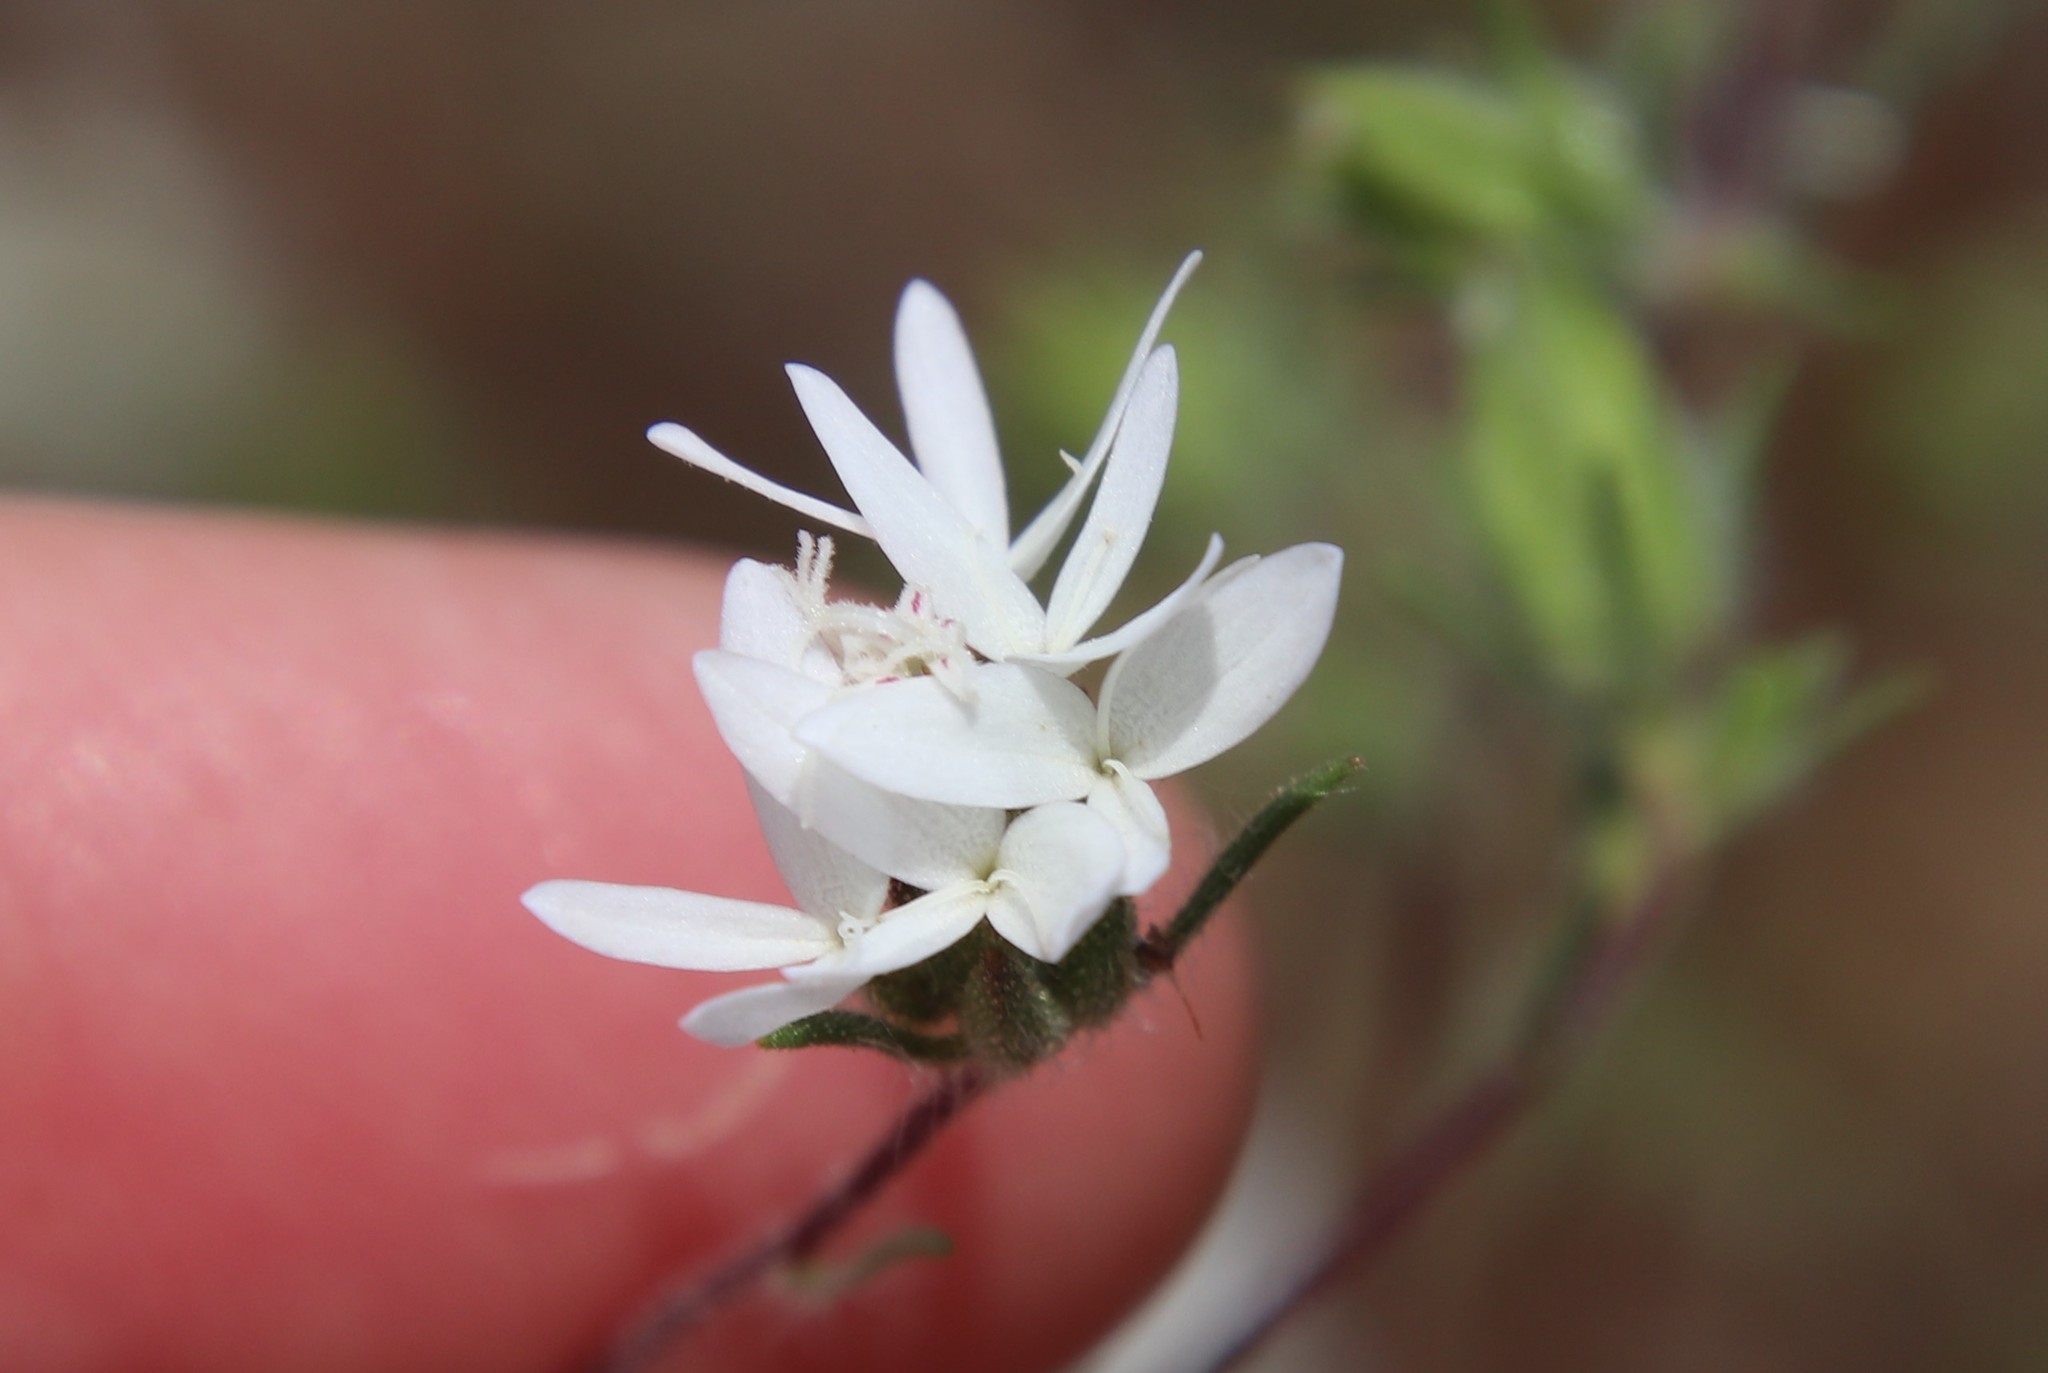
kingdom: Plantae
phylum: Tracheophyta
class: Magnoliopsida
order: Asterales
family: Asteraceae
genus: Osmadenia
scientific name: Osmadenia tenella
